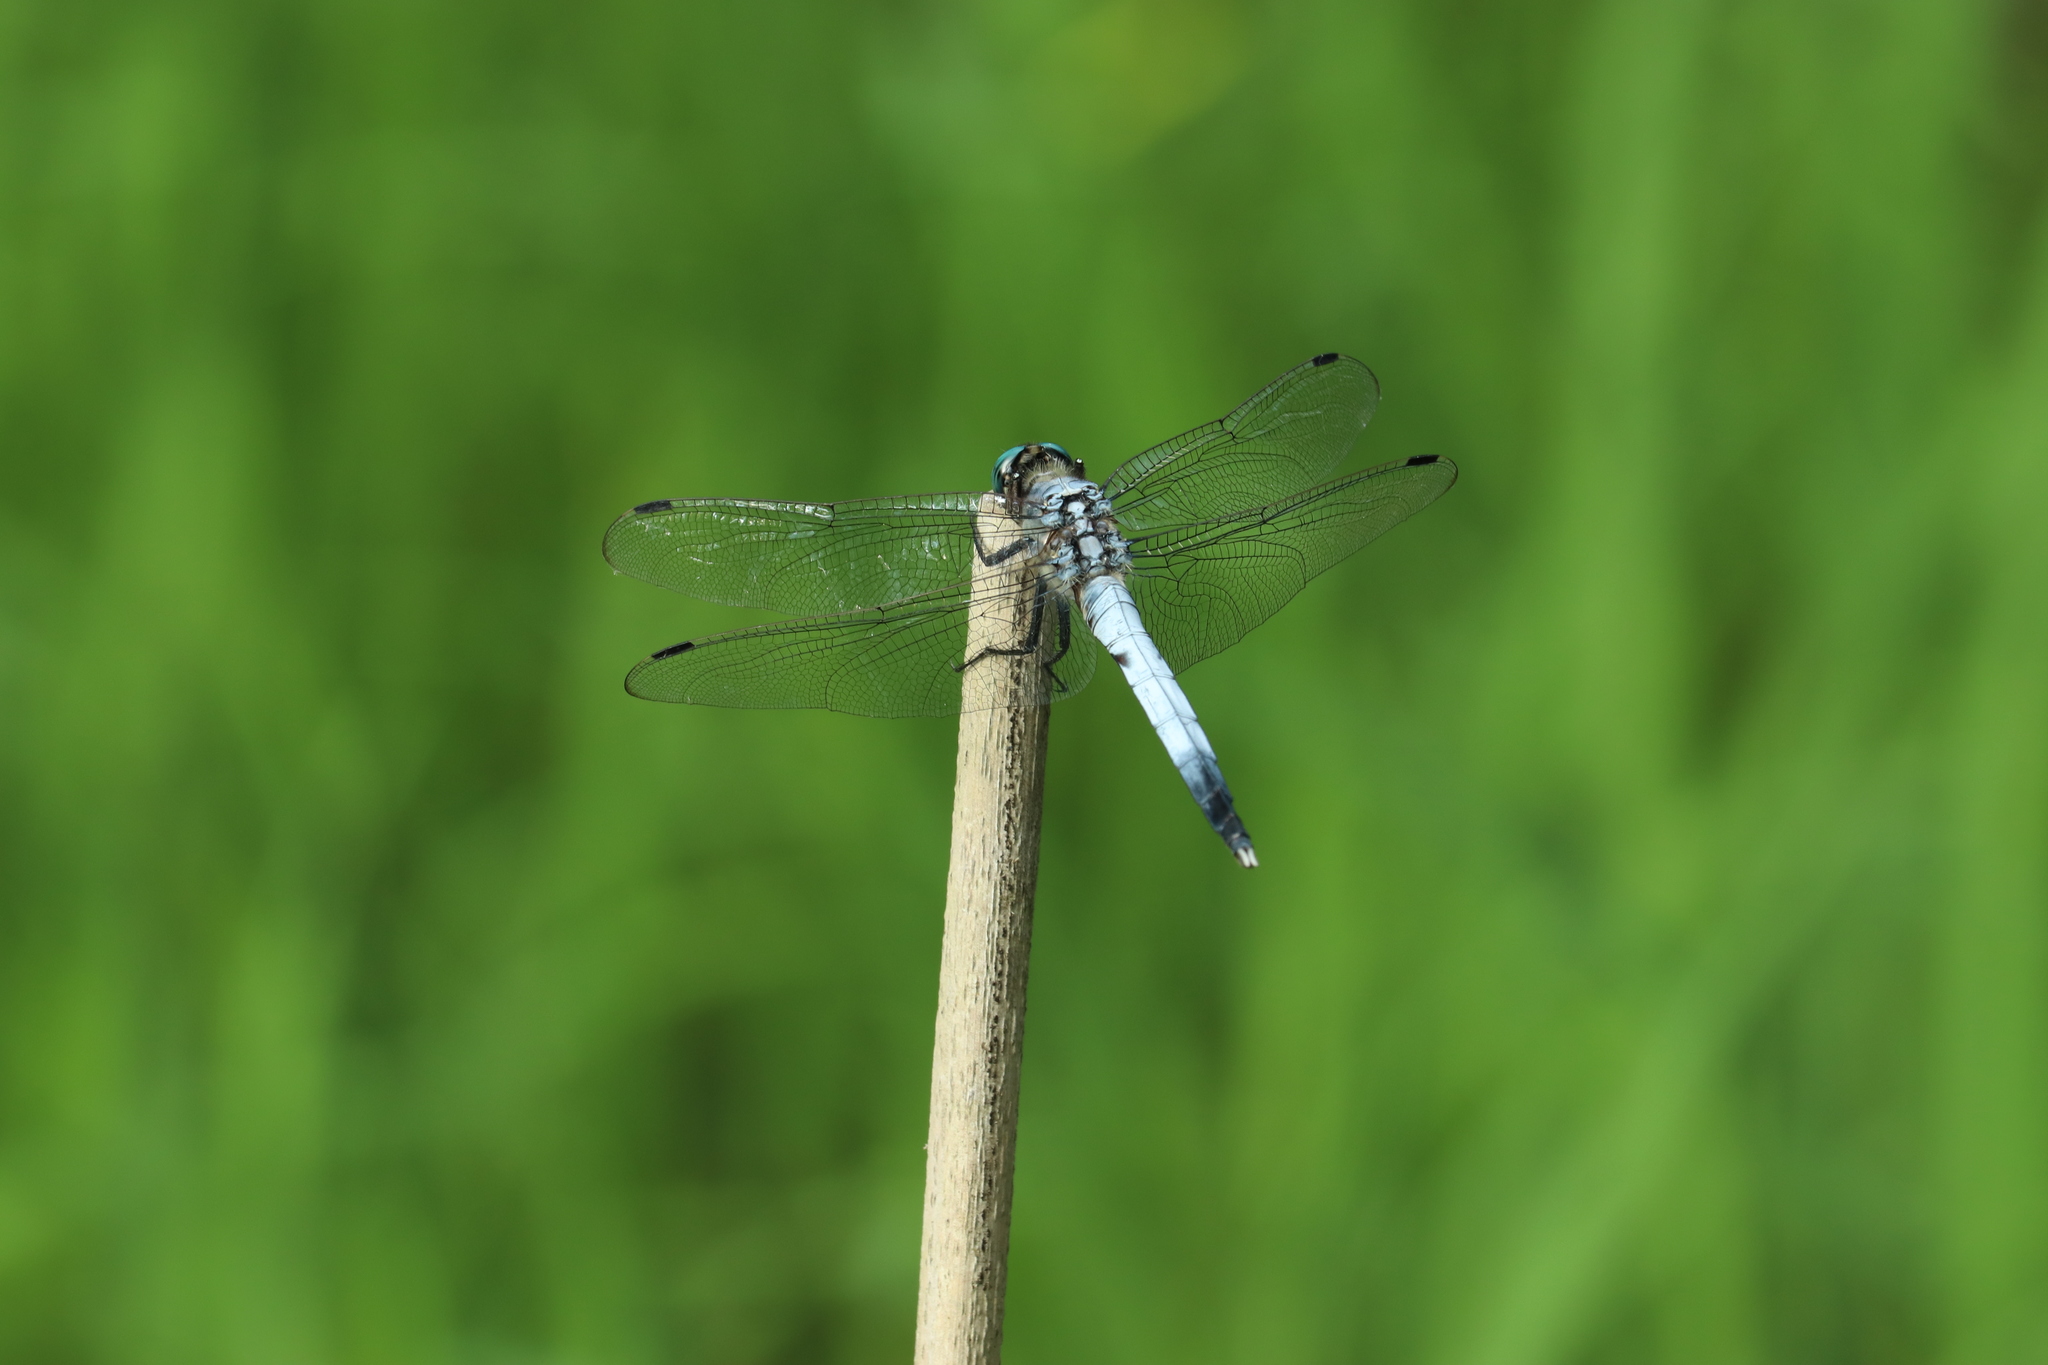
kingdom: Animalia
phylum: Arthropoda
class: Insecta
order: Odonata
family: Libellulidae
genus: Orthetrum
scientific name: Orthetrum albistylum
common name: White-tailed skimmer
